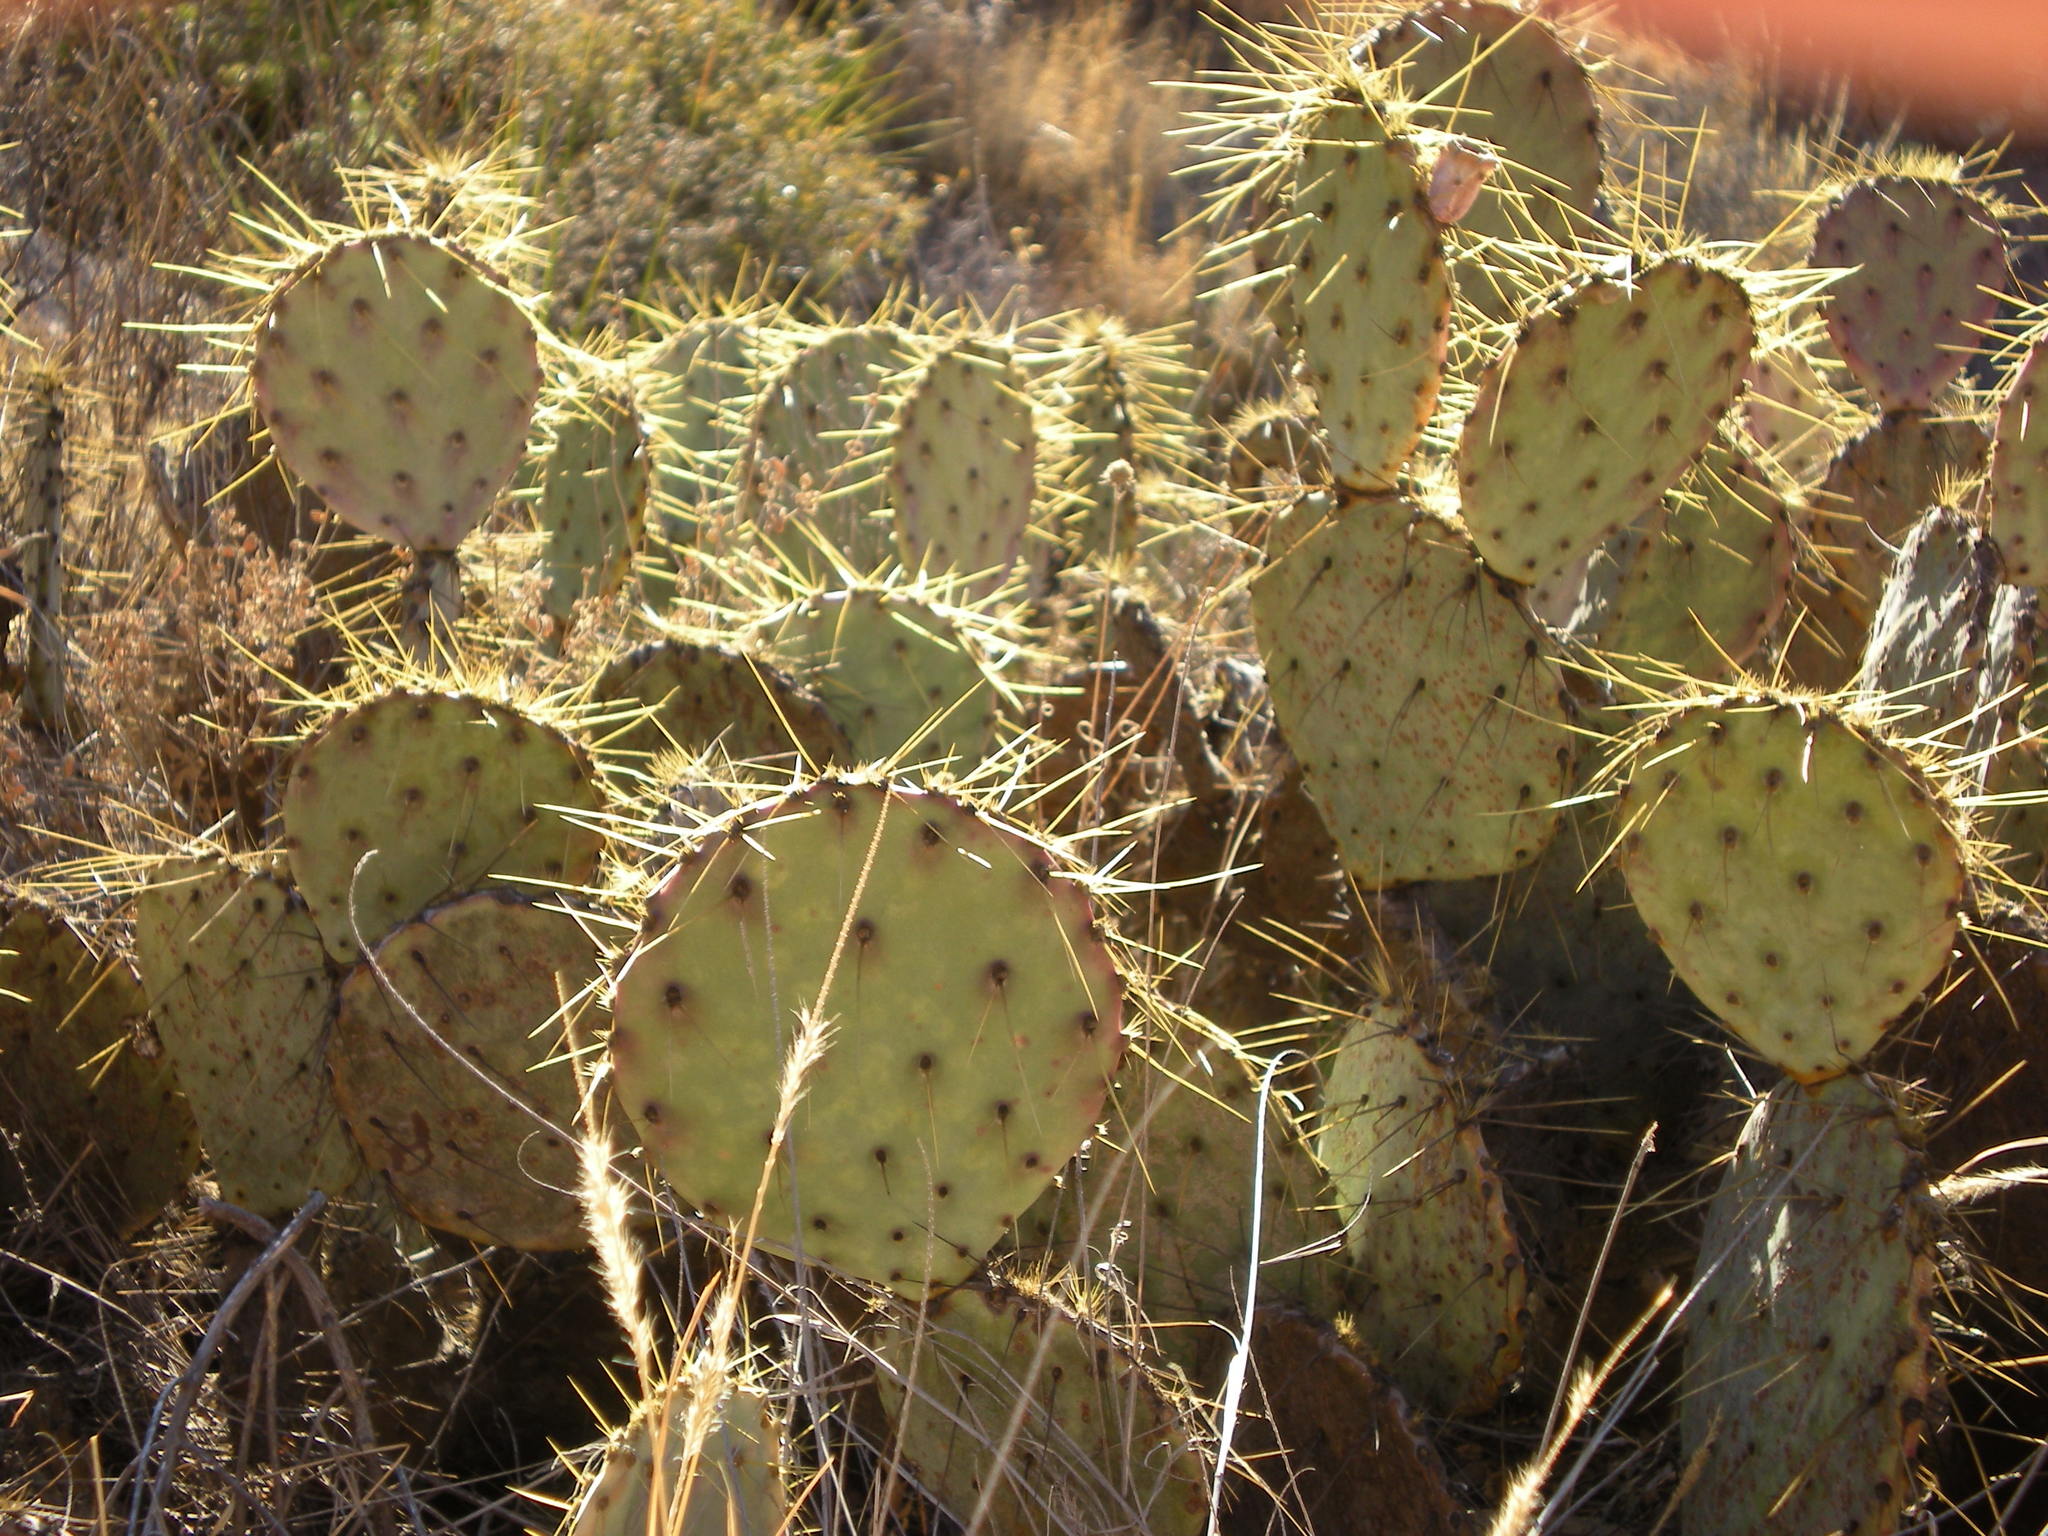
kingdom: Plantae
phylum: Tracheophyta
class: Magnoliopsida
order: Caryophyllales
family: Cactaceae
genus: Opuntia
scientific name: Opuntia chisosensis
